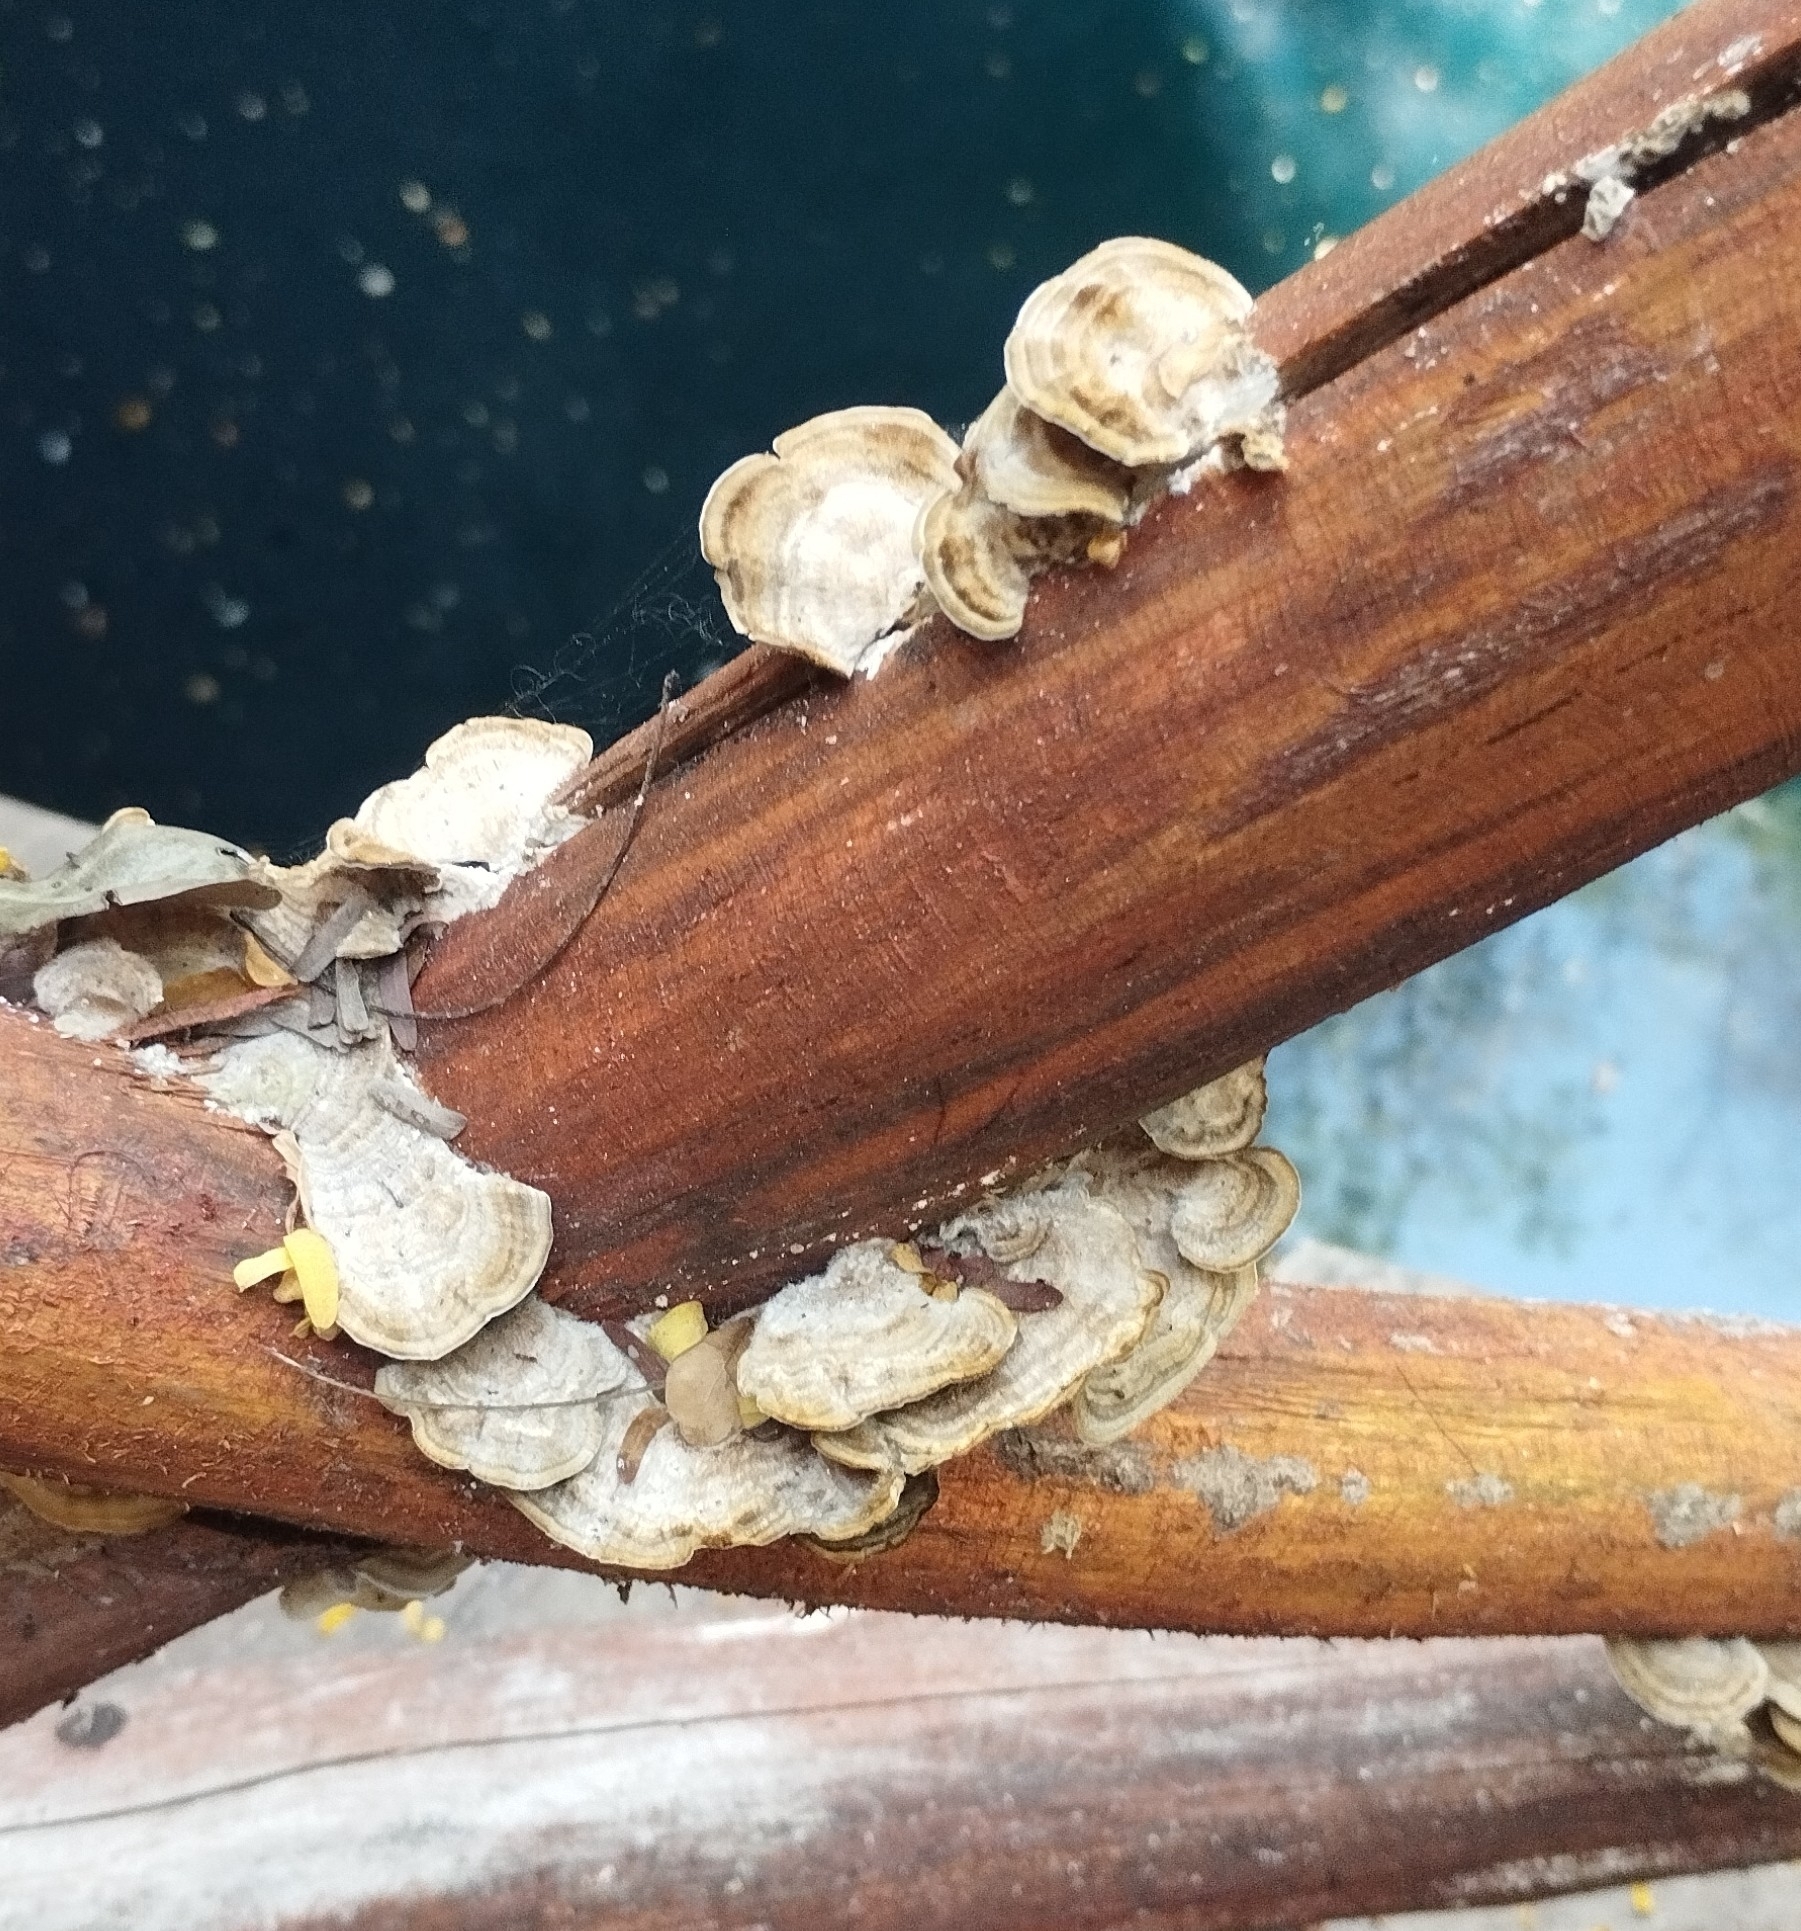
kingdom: Fungi
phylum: Basidiomycota
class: Agaricomycetes
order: Polyporales
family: Polyporaceae
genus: Trametes
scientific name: Trametes villosa
